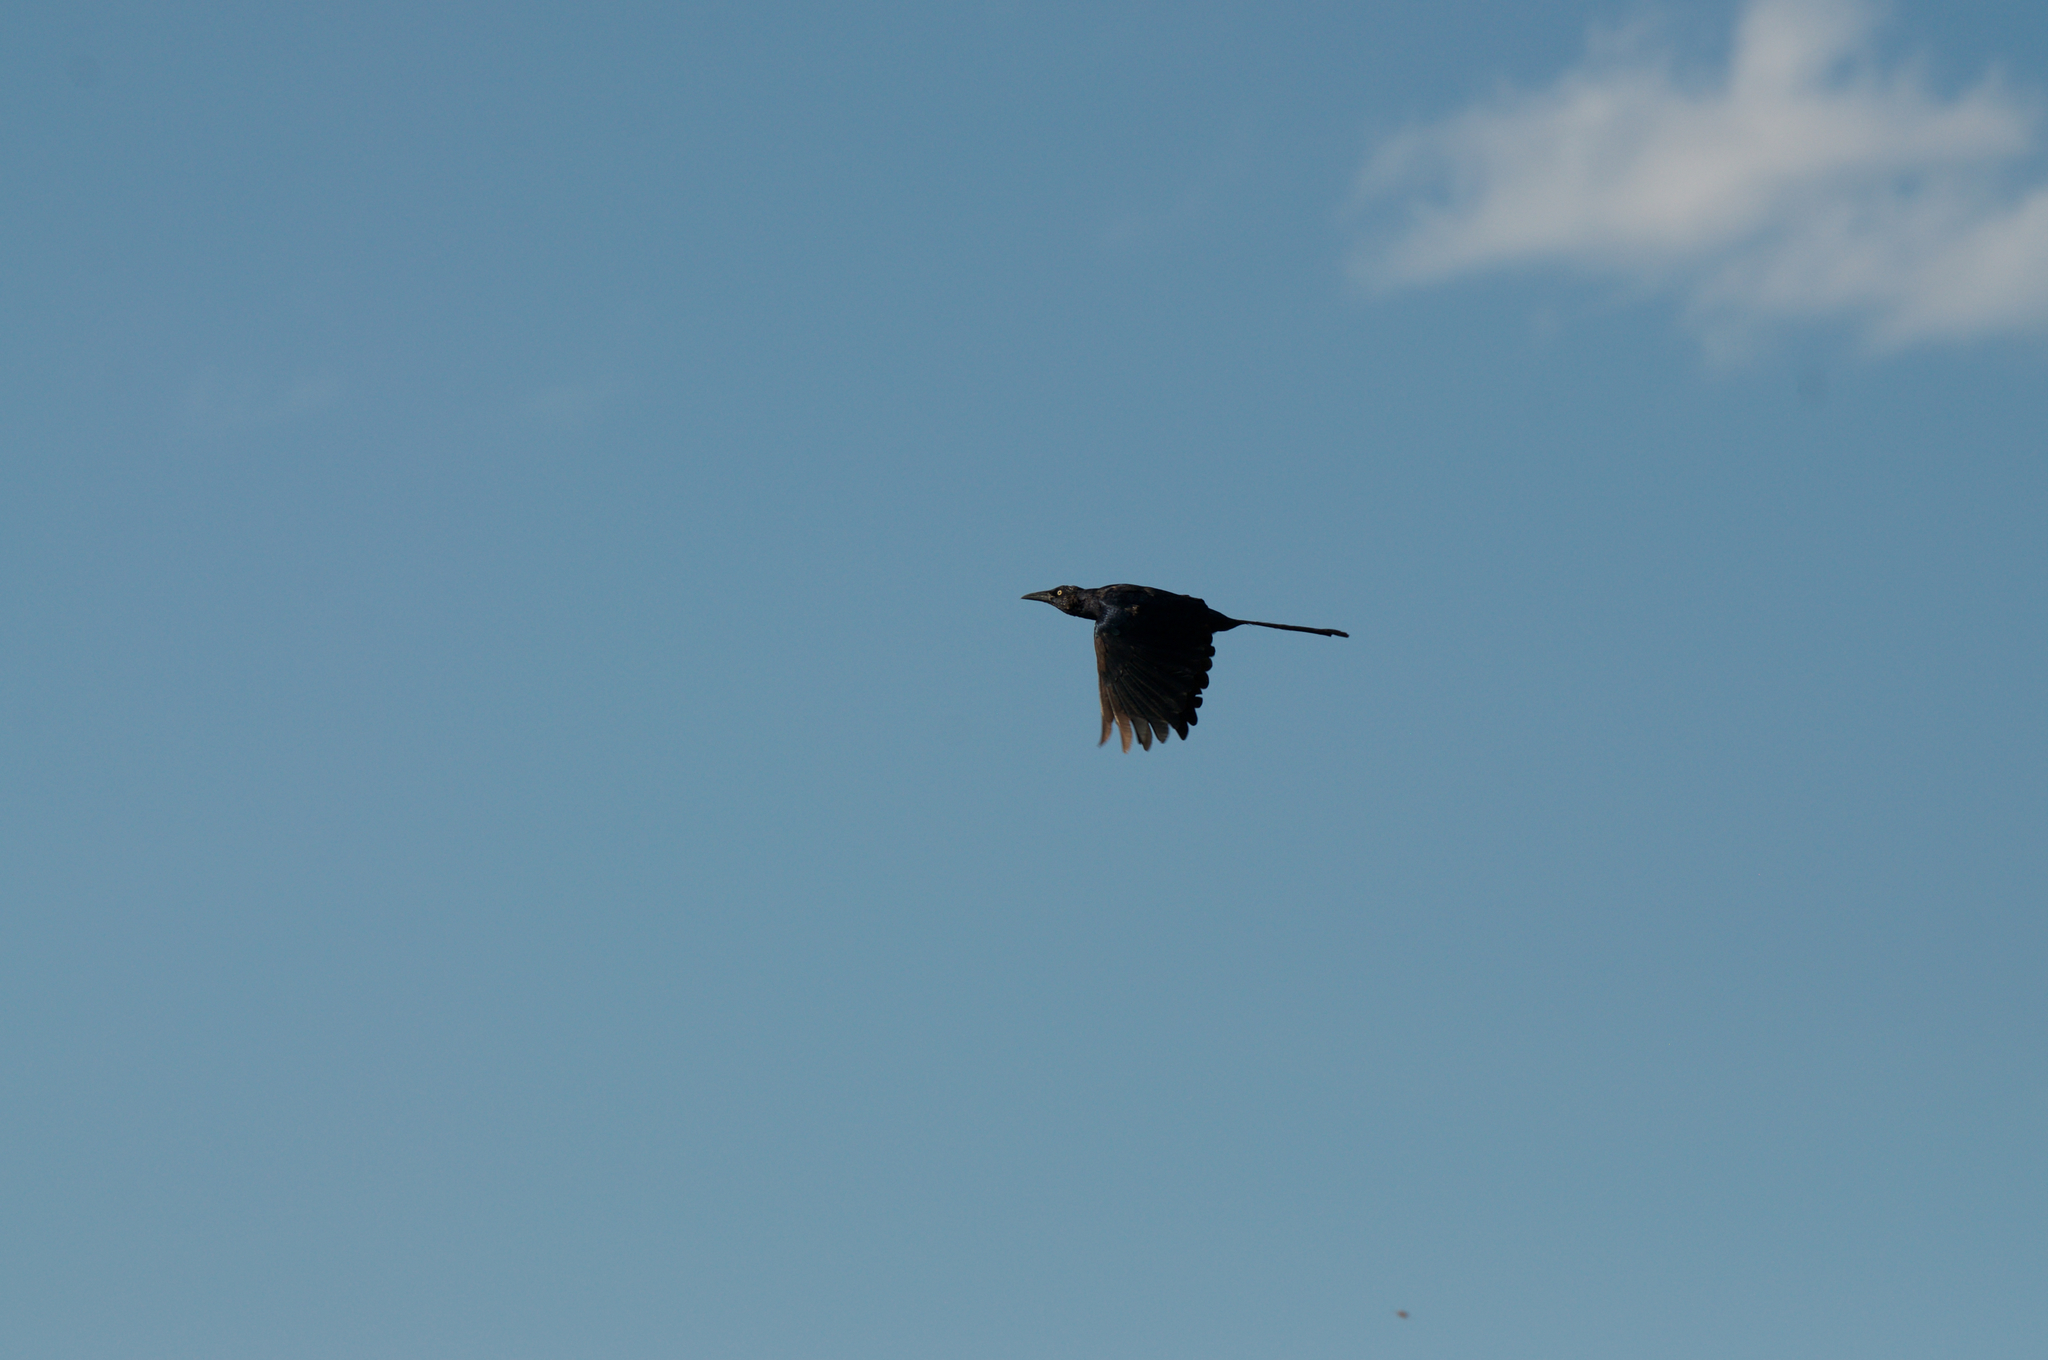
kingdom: Animalia
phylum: Chordata
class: Aves
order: Passeriformes
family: Icteridae
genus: Quiscalus
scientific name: Quiscalus mexicanus
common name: Great-tailed grackle
